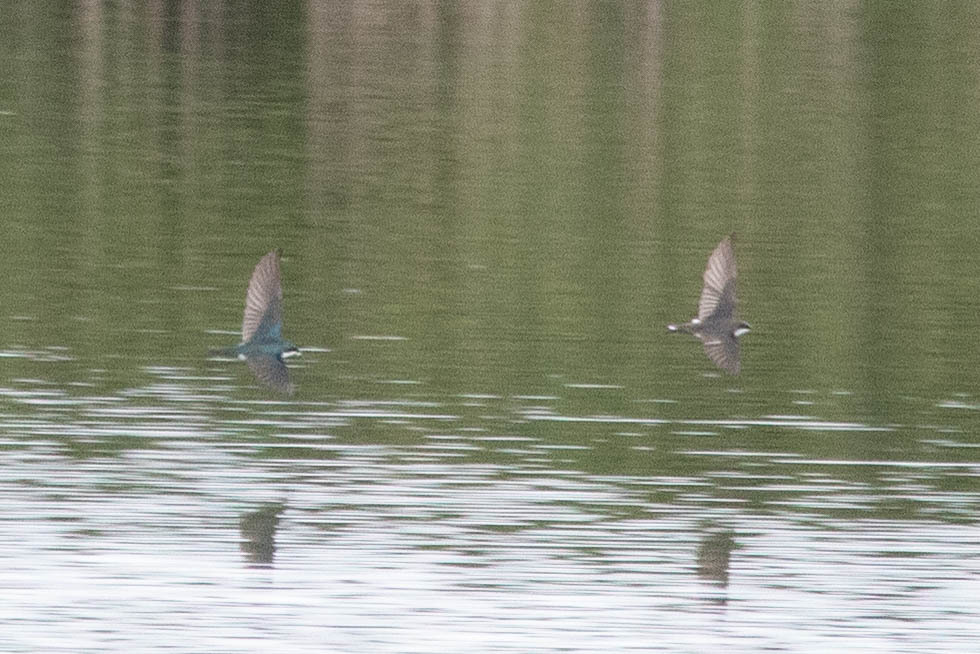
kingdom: Animalia
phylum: Chordata
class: Aves
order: Passeriformes
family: Hirundinidae
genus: Tachycineta
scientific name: Tachycineta bicolor
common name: Tree swallow
